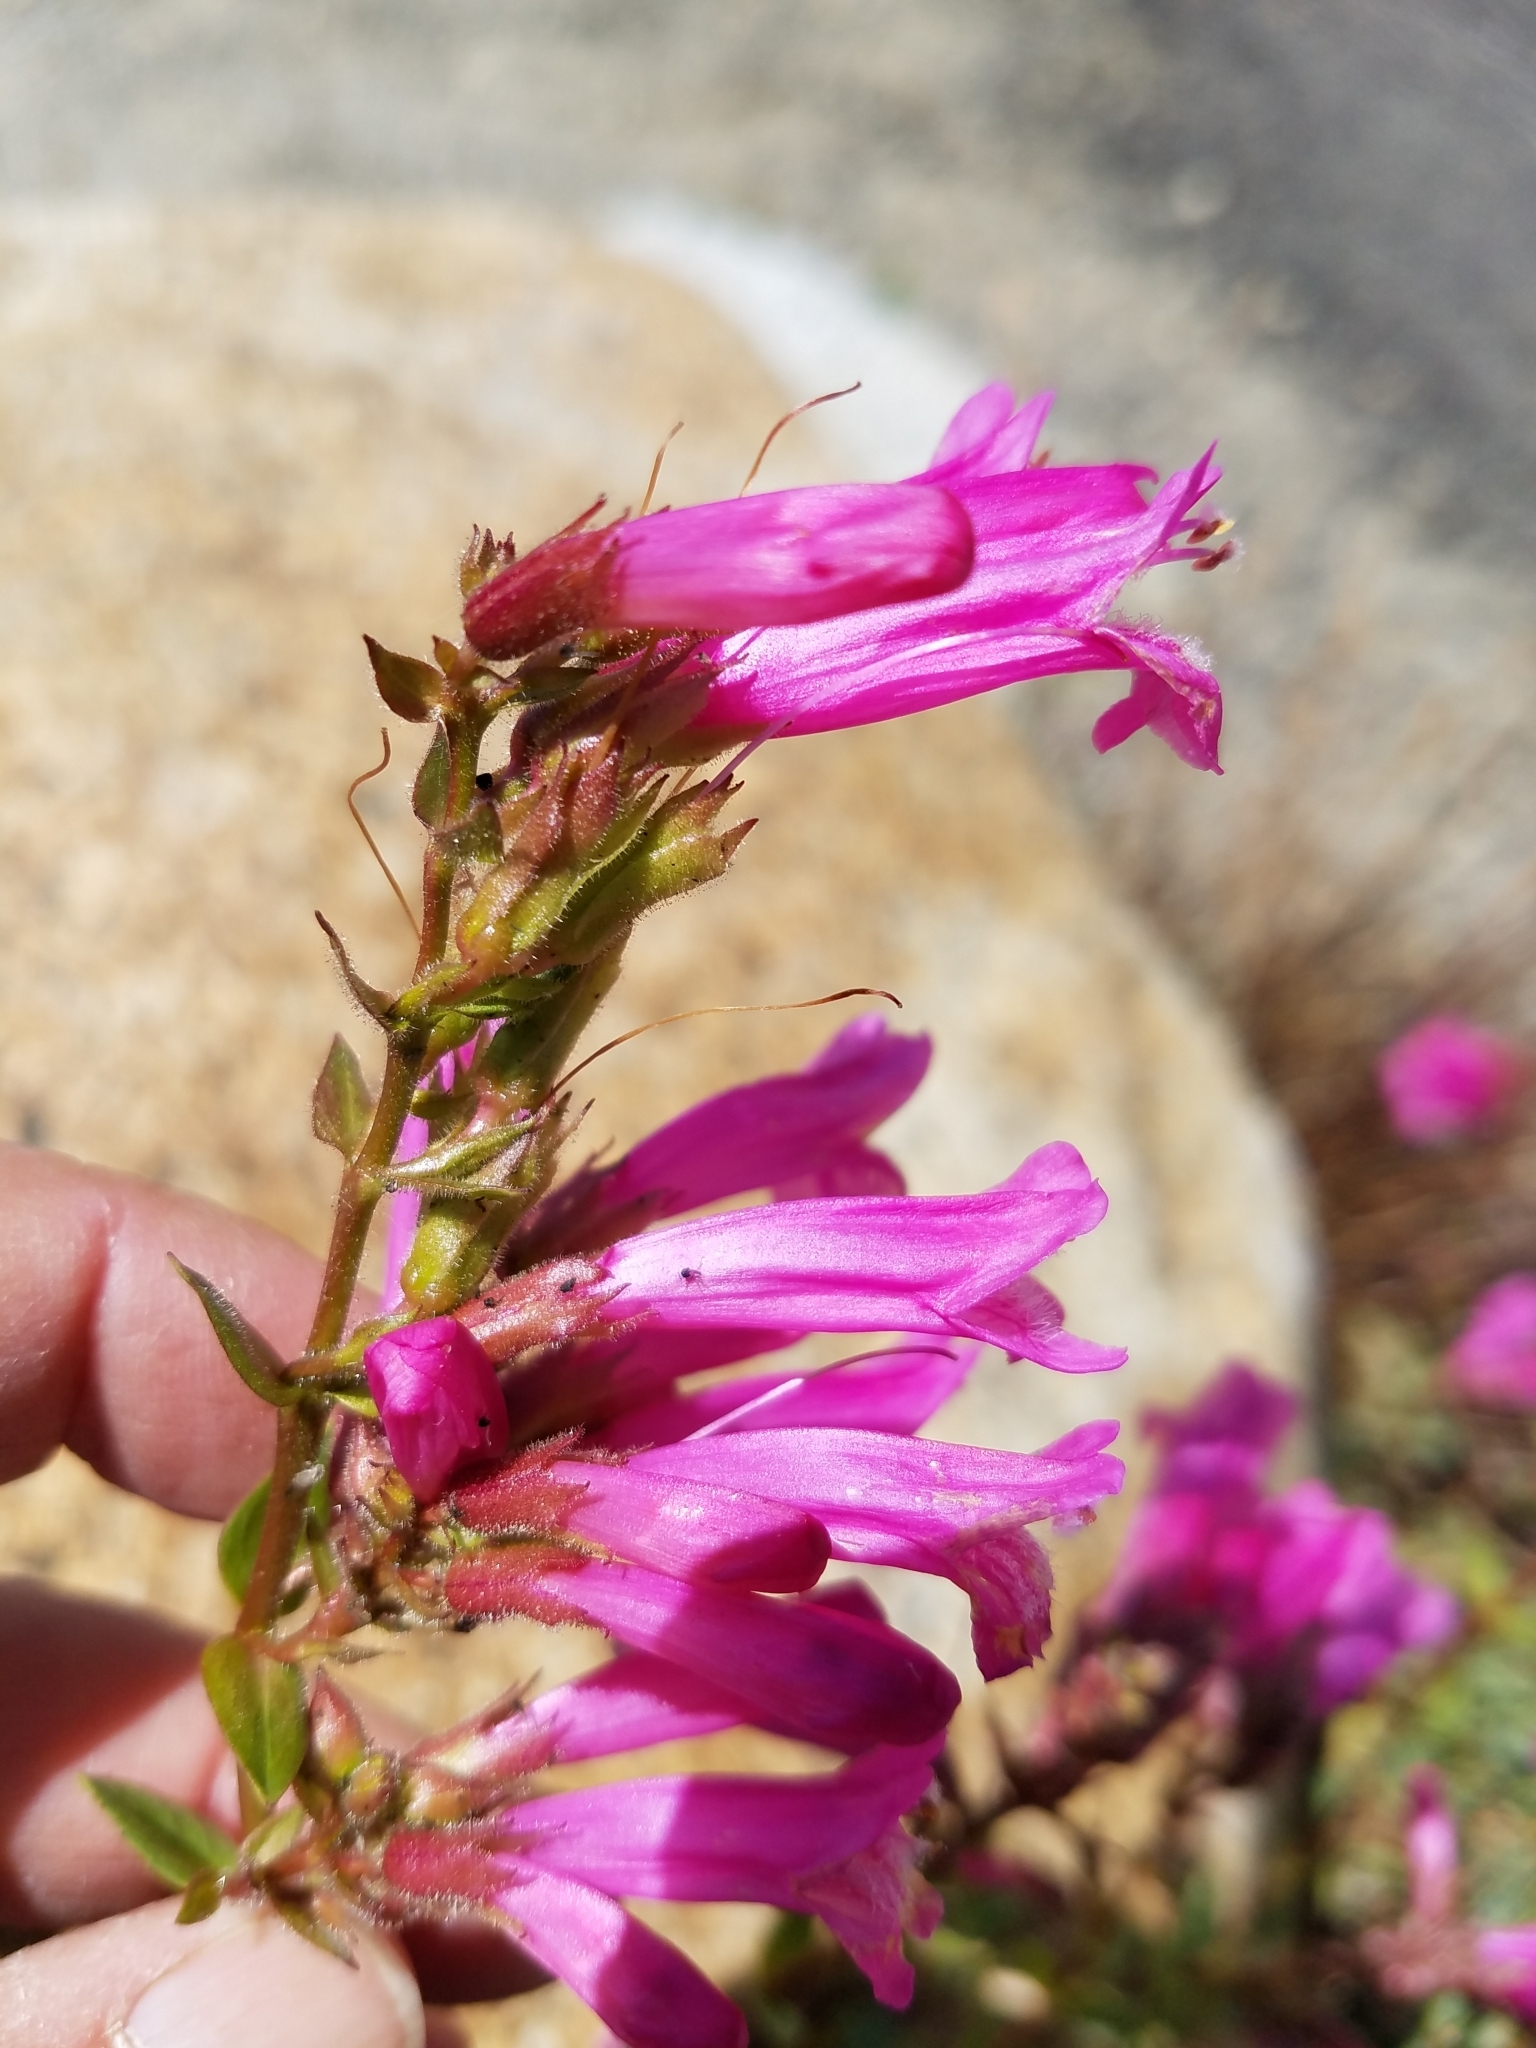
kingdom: Plantae
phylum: Tracheophyta
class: Magnoliopsida
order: Lamiales
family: Plantaginaceae
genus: Penstemon
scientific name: Penstemon newberryi
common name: Mountain-pride
